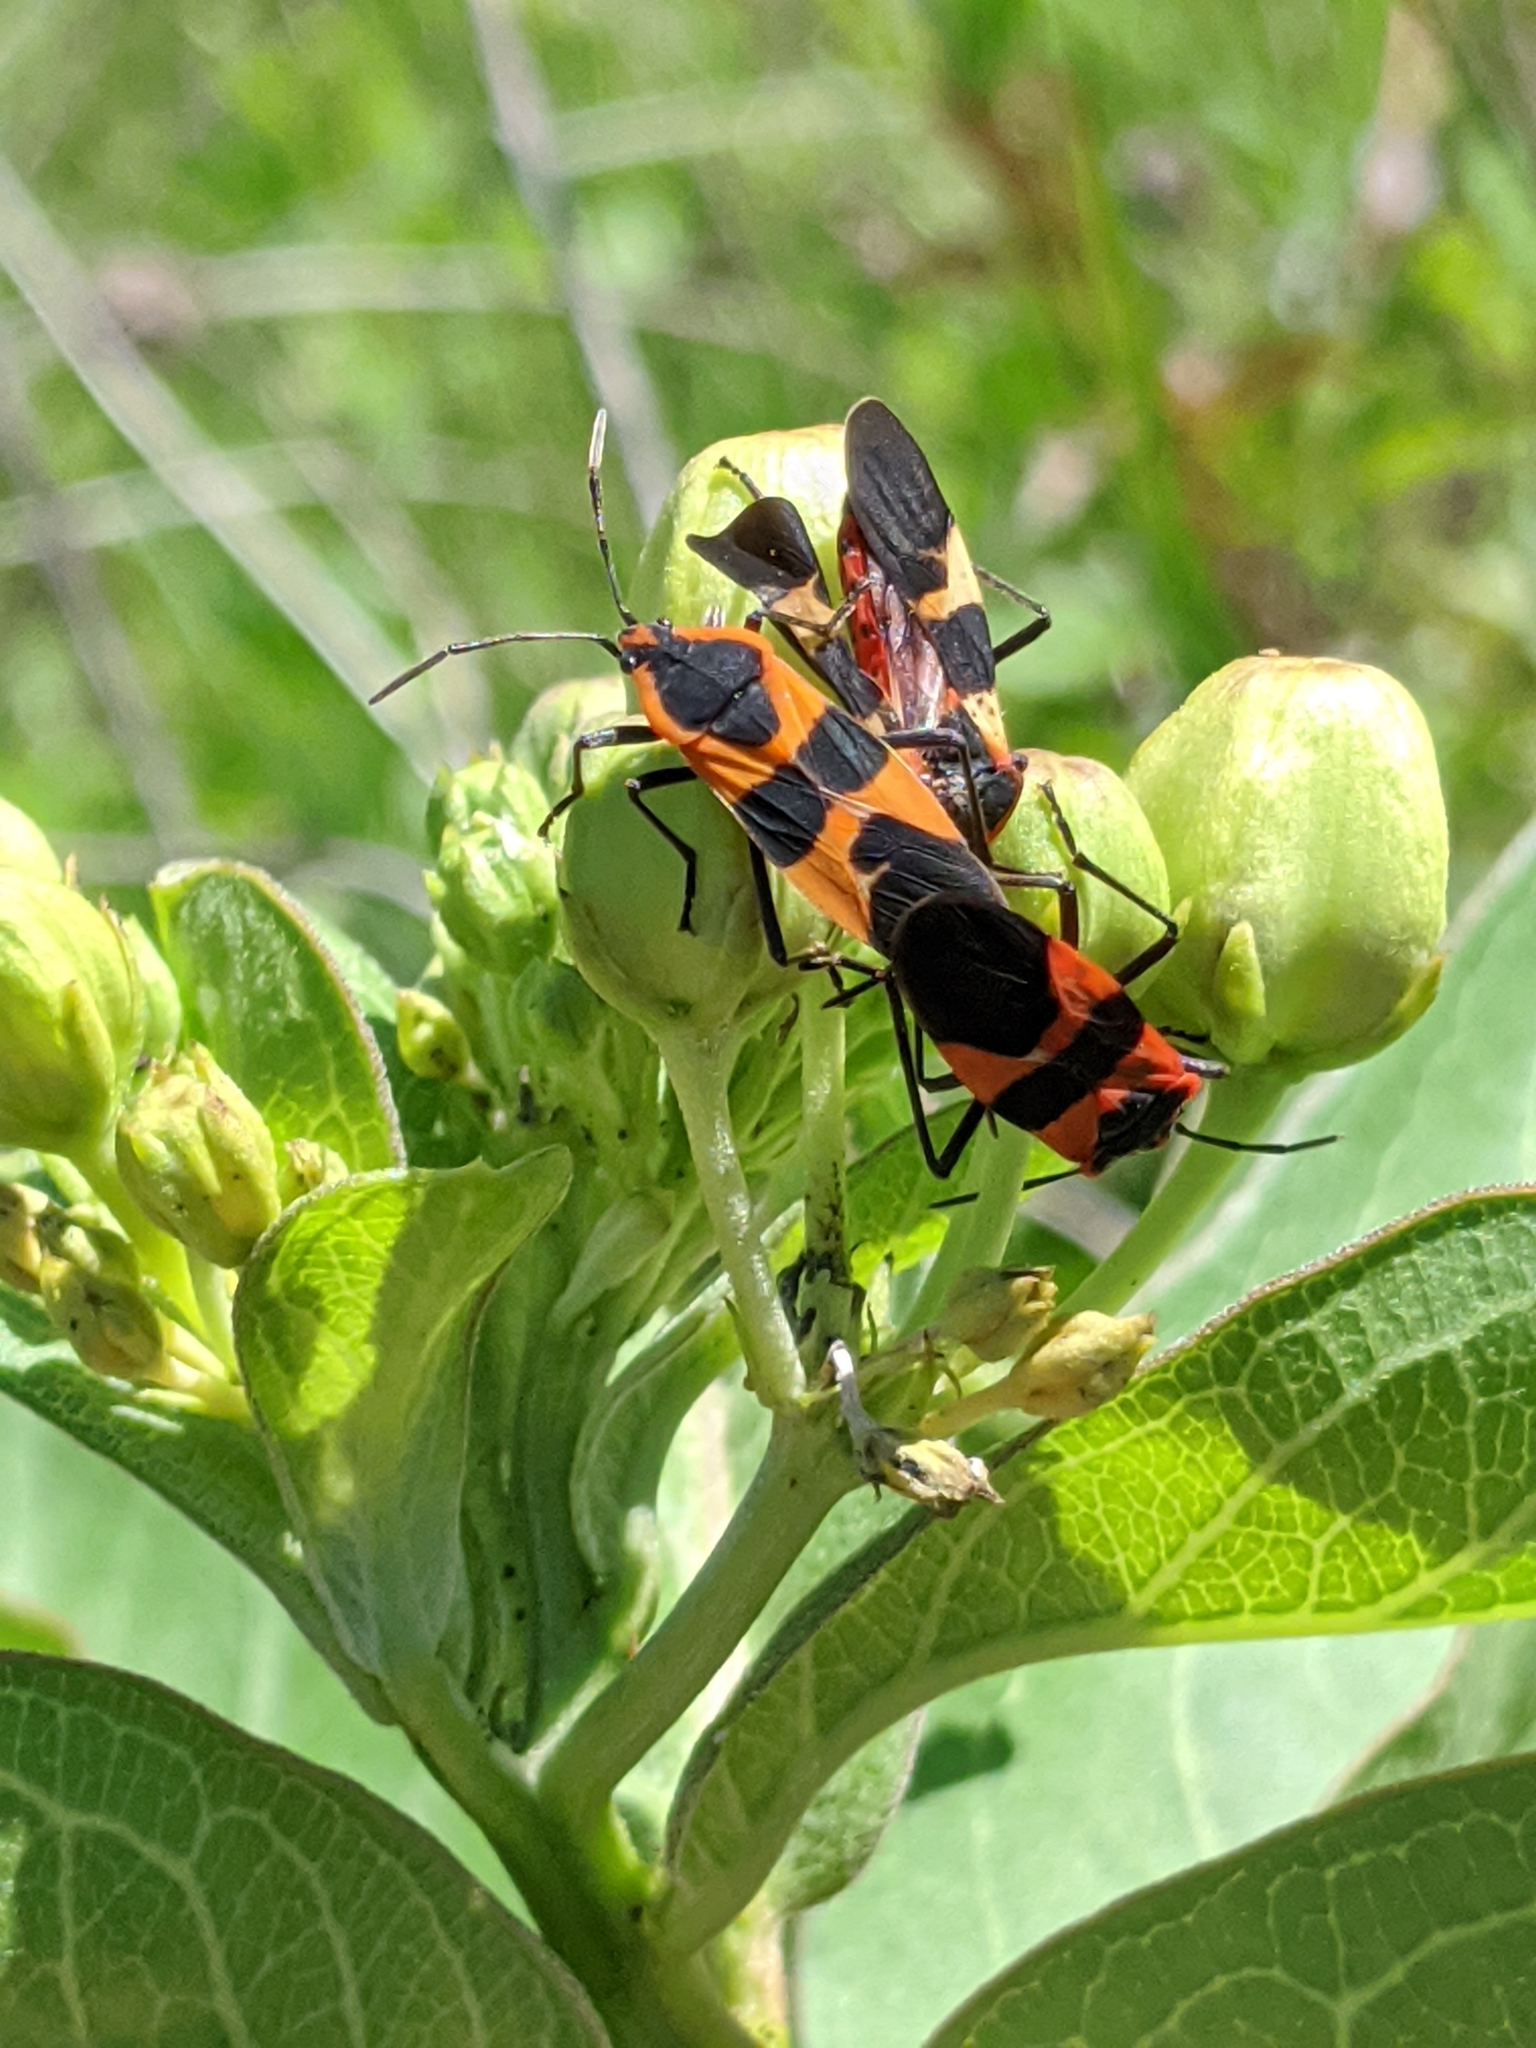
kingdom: Animalia
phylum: Arthropoda
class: Insecta
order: Hemiptera
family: Lygaeidae
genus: Oncopeltus
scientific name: Oncopeltus fasciatus
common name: Large milkweed bug
